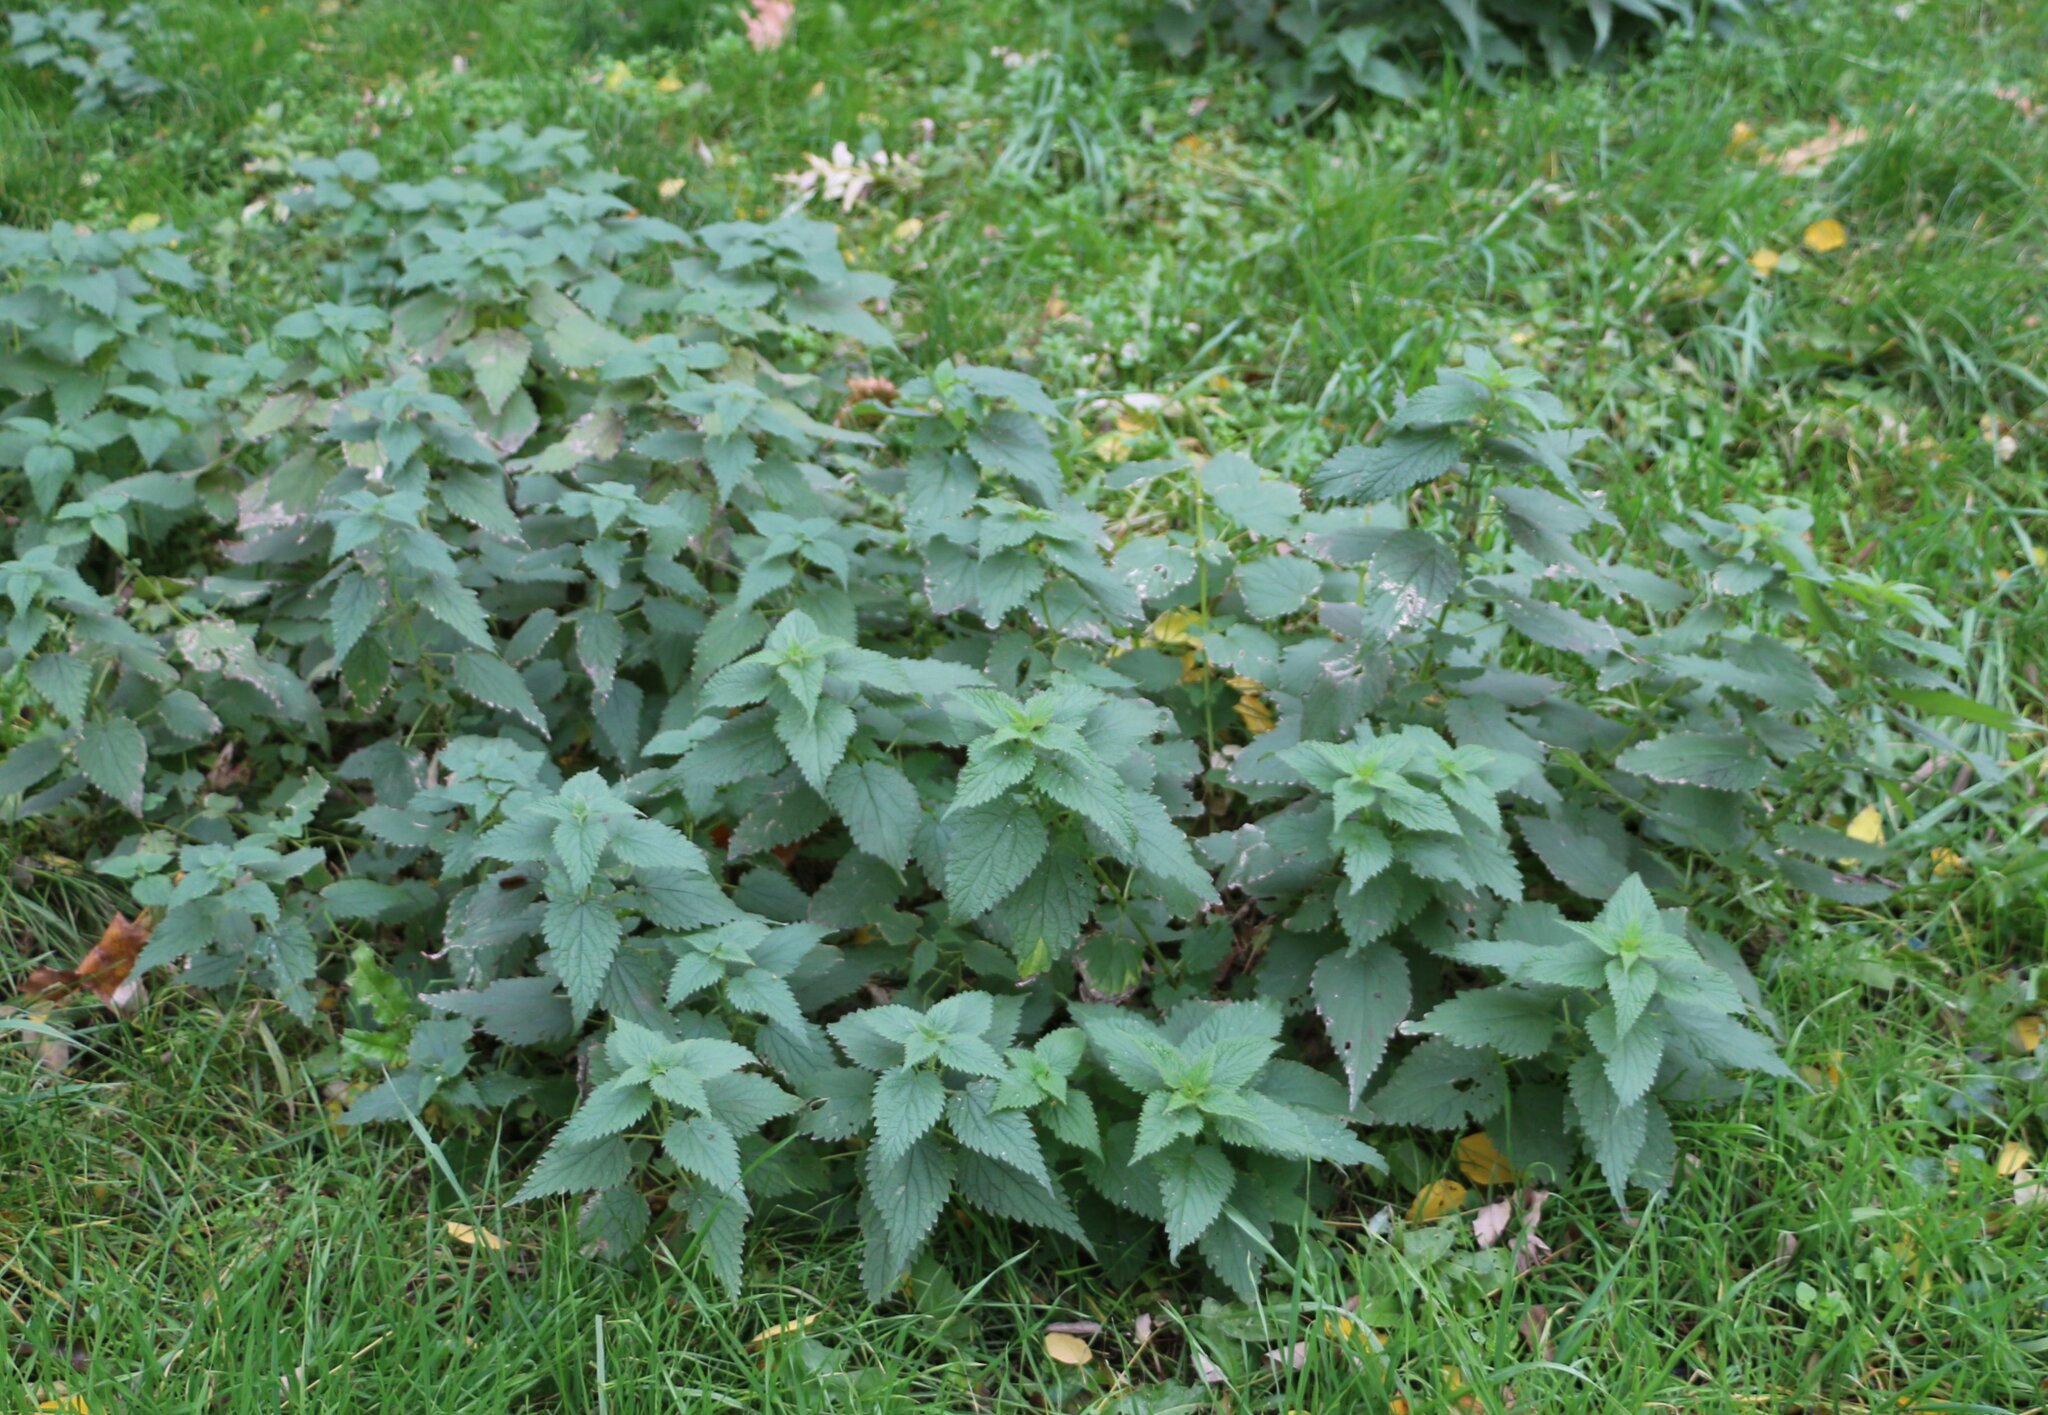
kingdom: Plantae
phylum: Tracheophyta
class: Magnoliopsida
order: Rosales
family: Urticaceae
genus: Urtica
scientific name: Urtica dioica
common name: Common nettle
